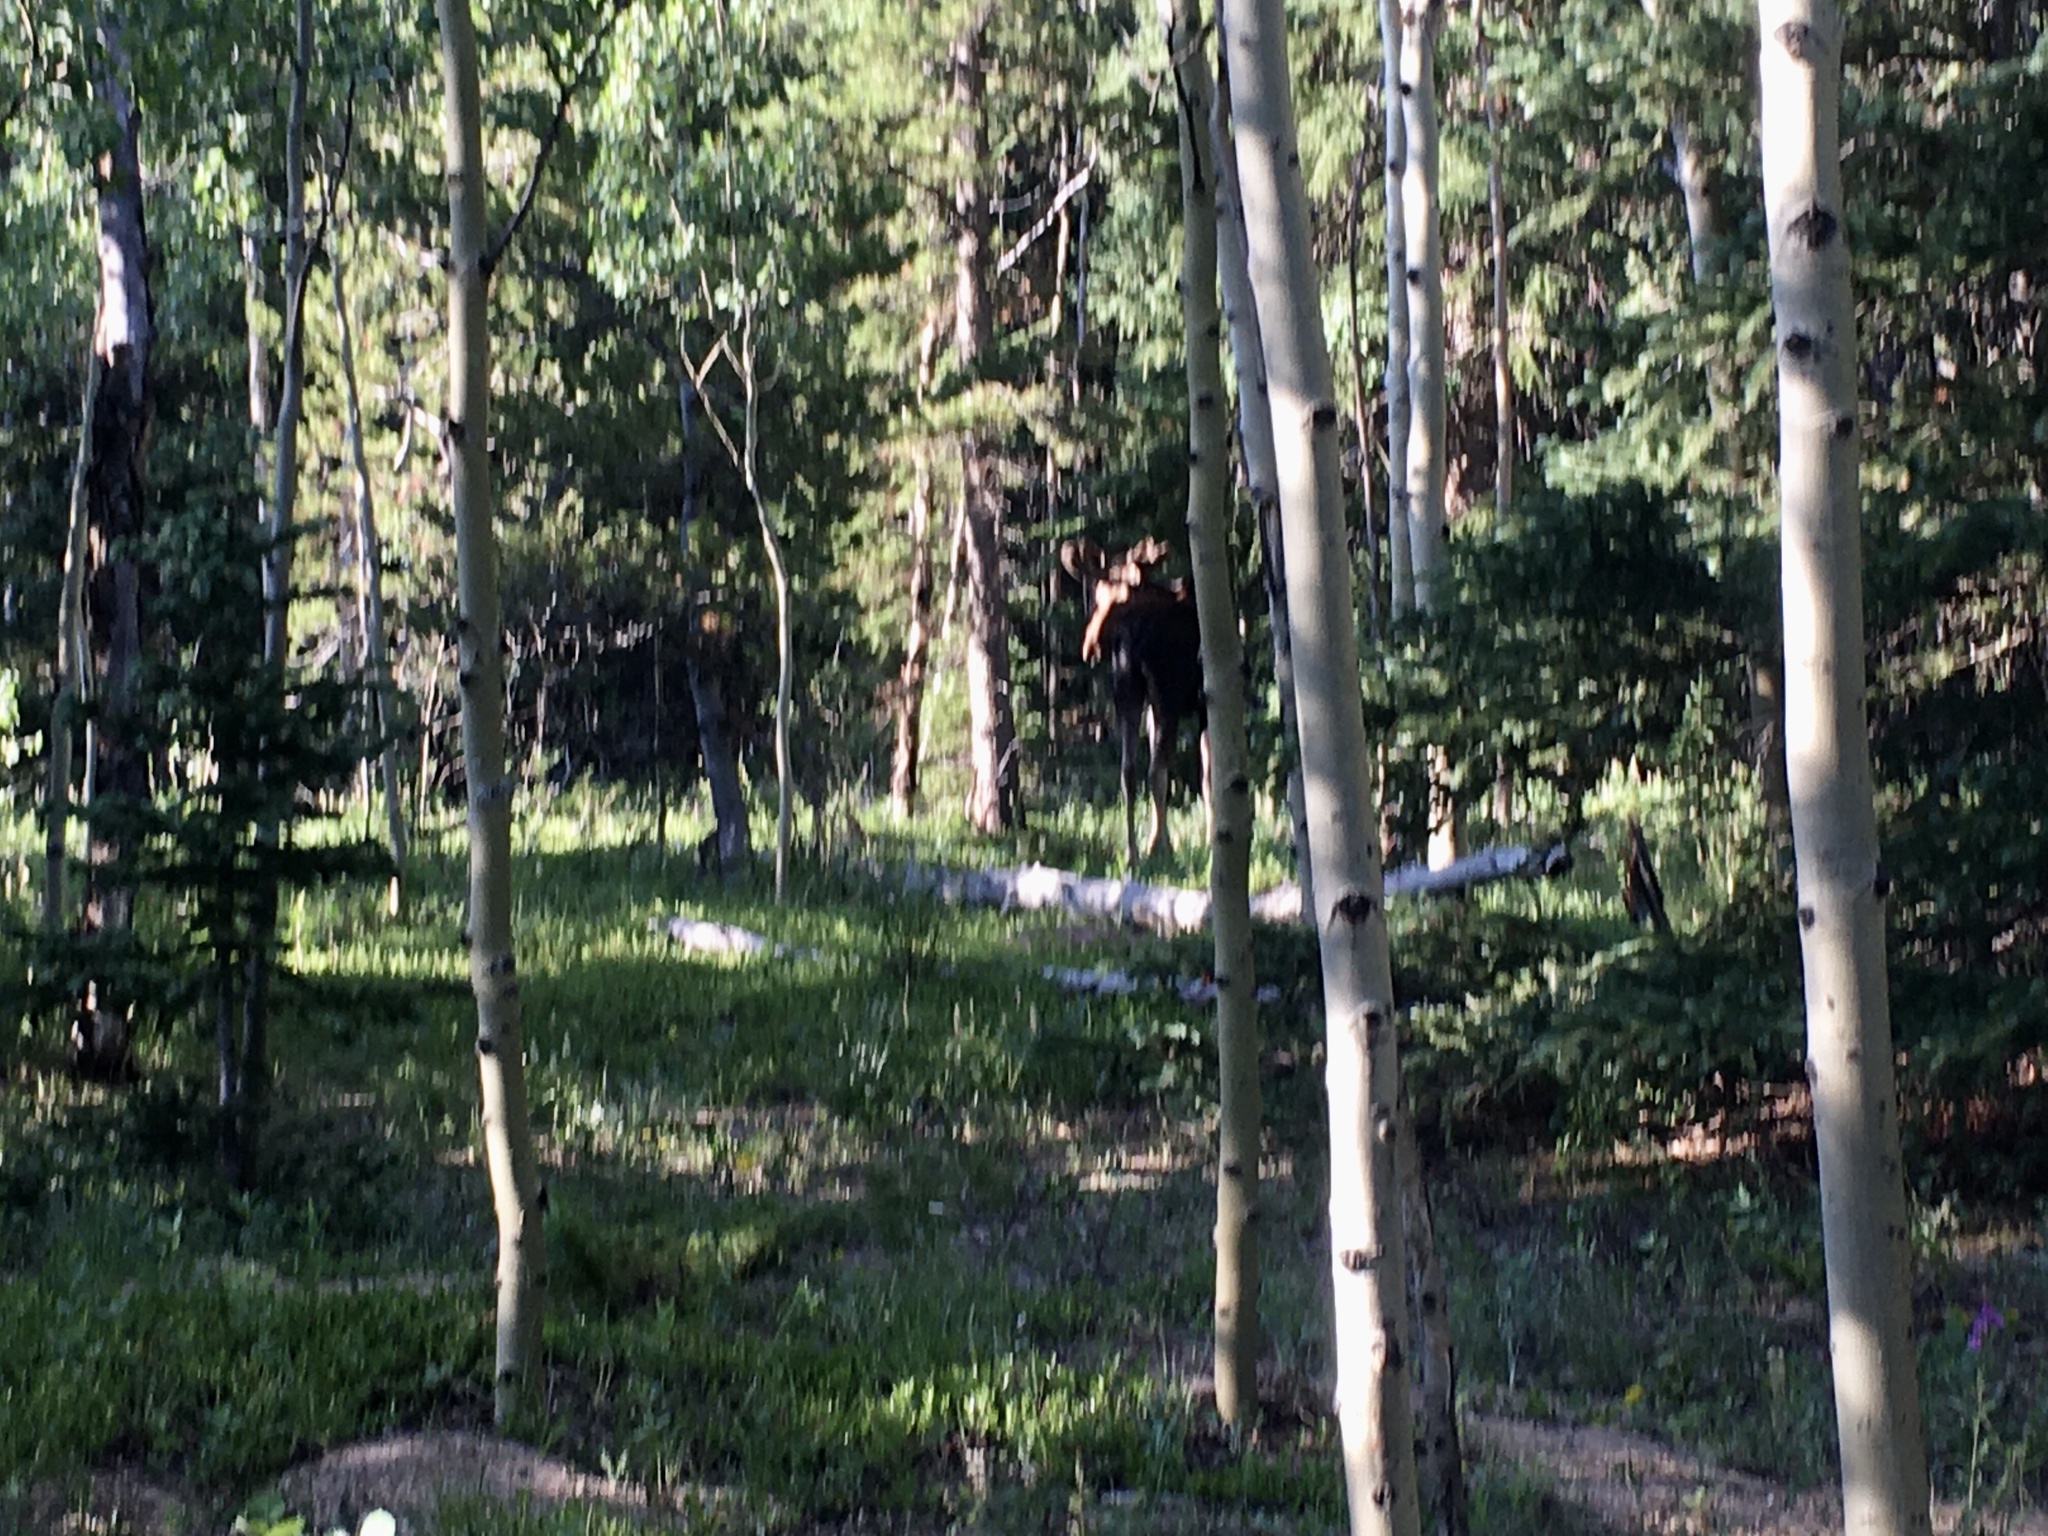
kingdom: Animalia
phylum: Chordata
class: Mammalia
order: Artiodactyla
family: Cervidae
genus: Alces
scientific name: Alces alces
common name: Moose
